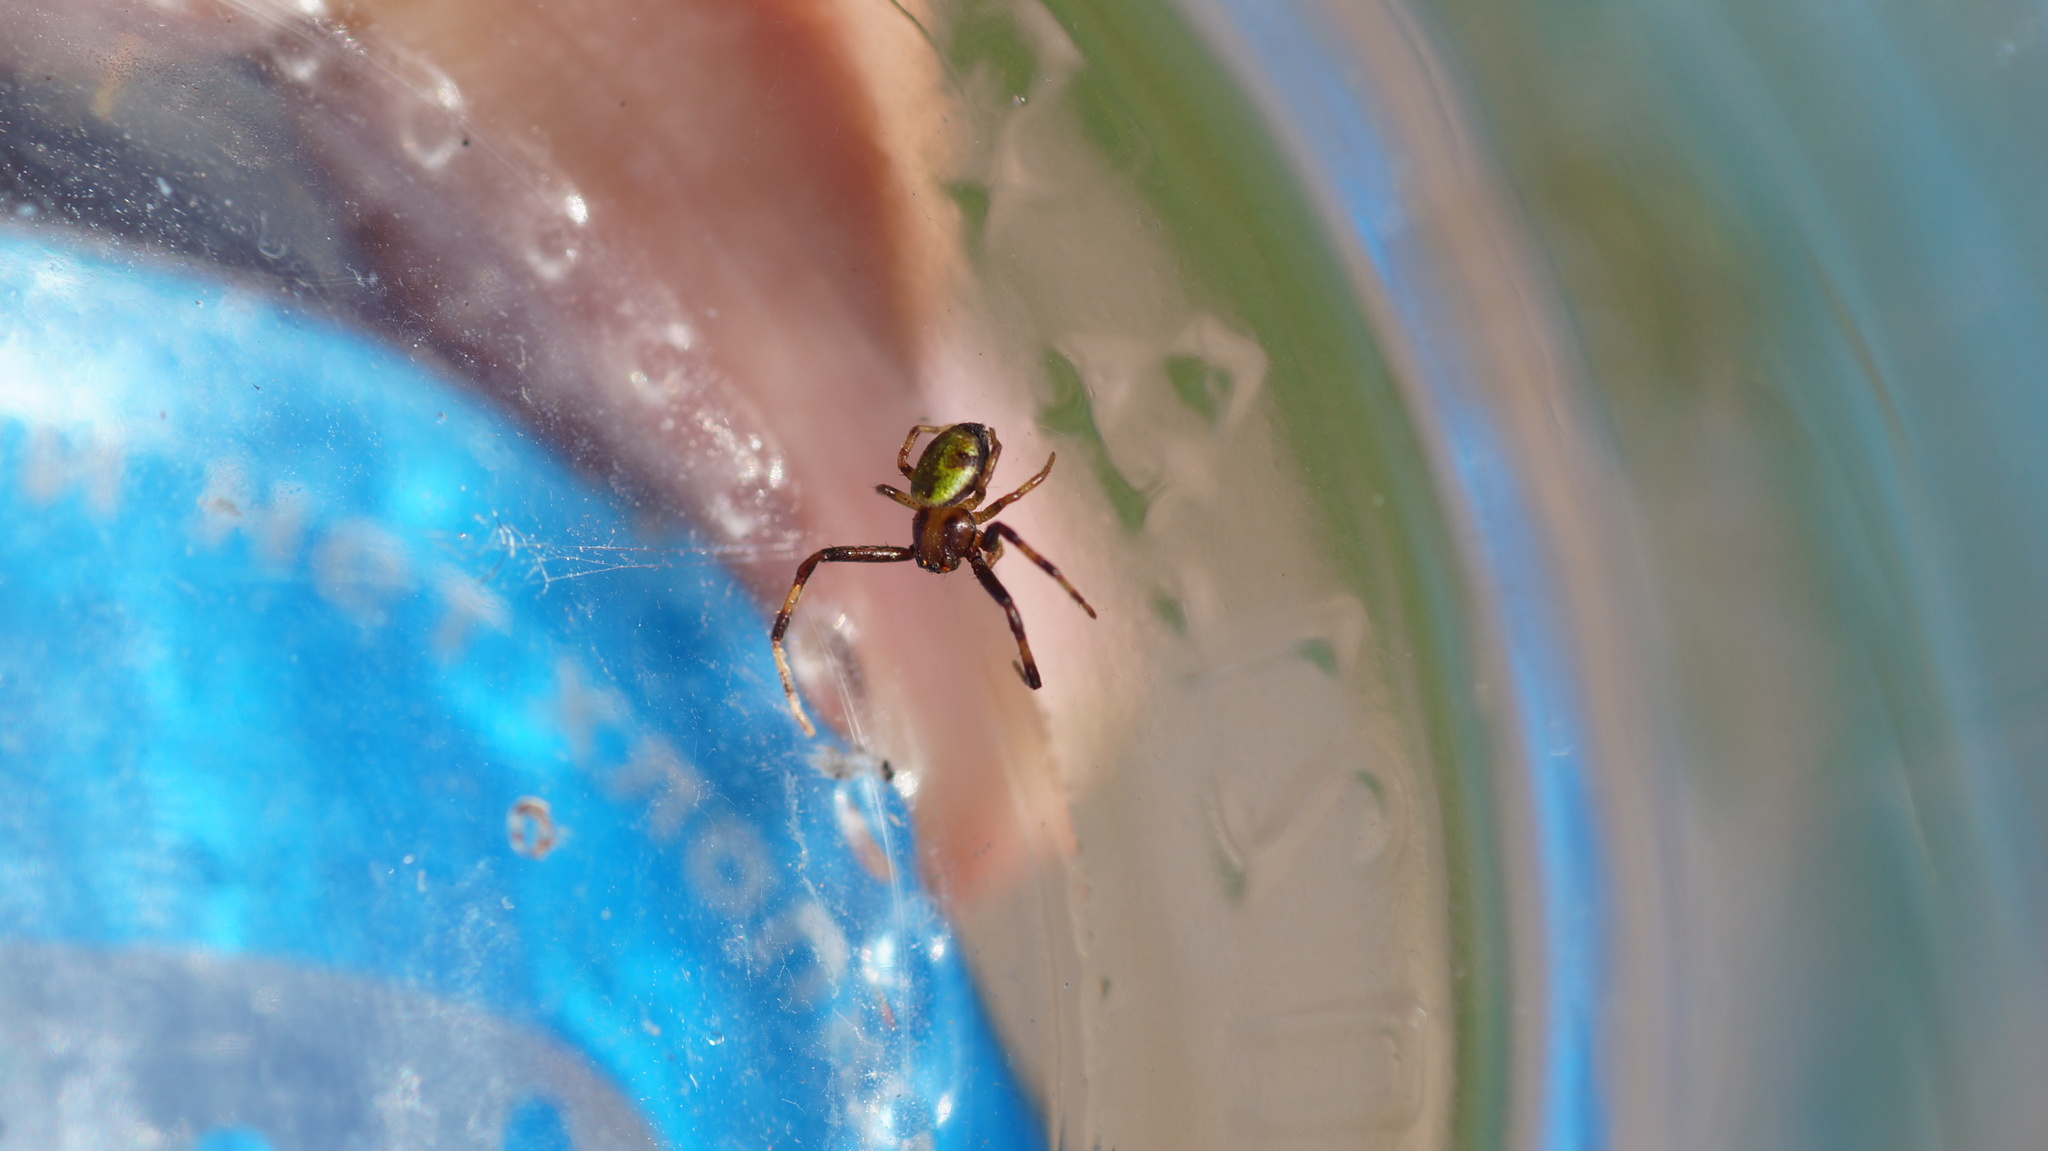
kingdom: Animalia
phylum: Arthropoda
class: Arachnida
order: Araneae
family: Thomisidae
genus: Ebrechtella
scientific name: Ebrechtella tricuspidata
